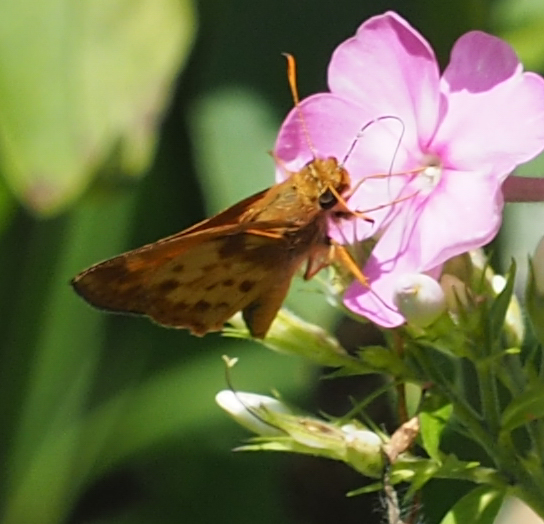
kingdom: Animalia
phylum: Arthropoda
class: Insecta
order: Lepidoptera
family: Hesperiidae
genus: Lon
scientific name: Lon zabulon
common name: Zabulon skipper
